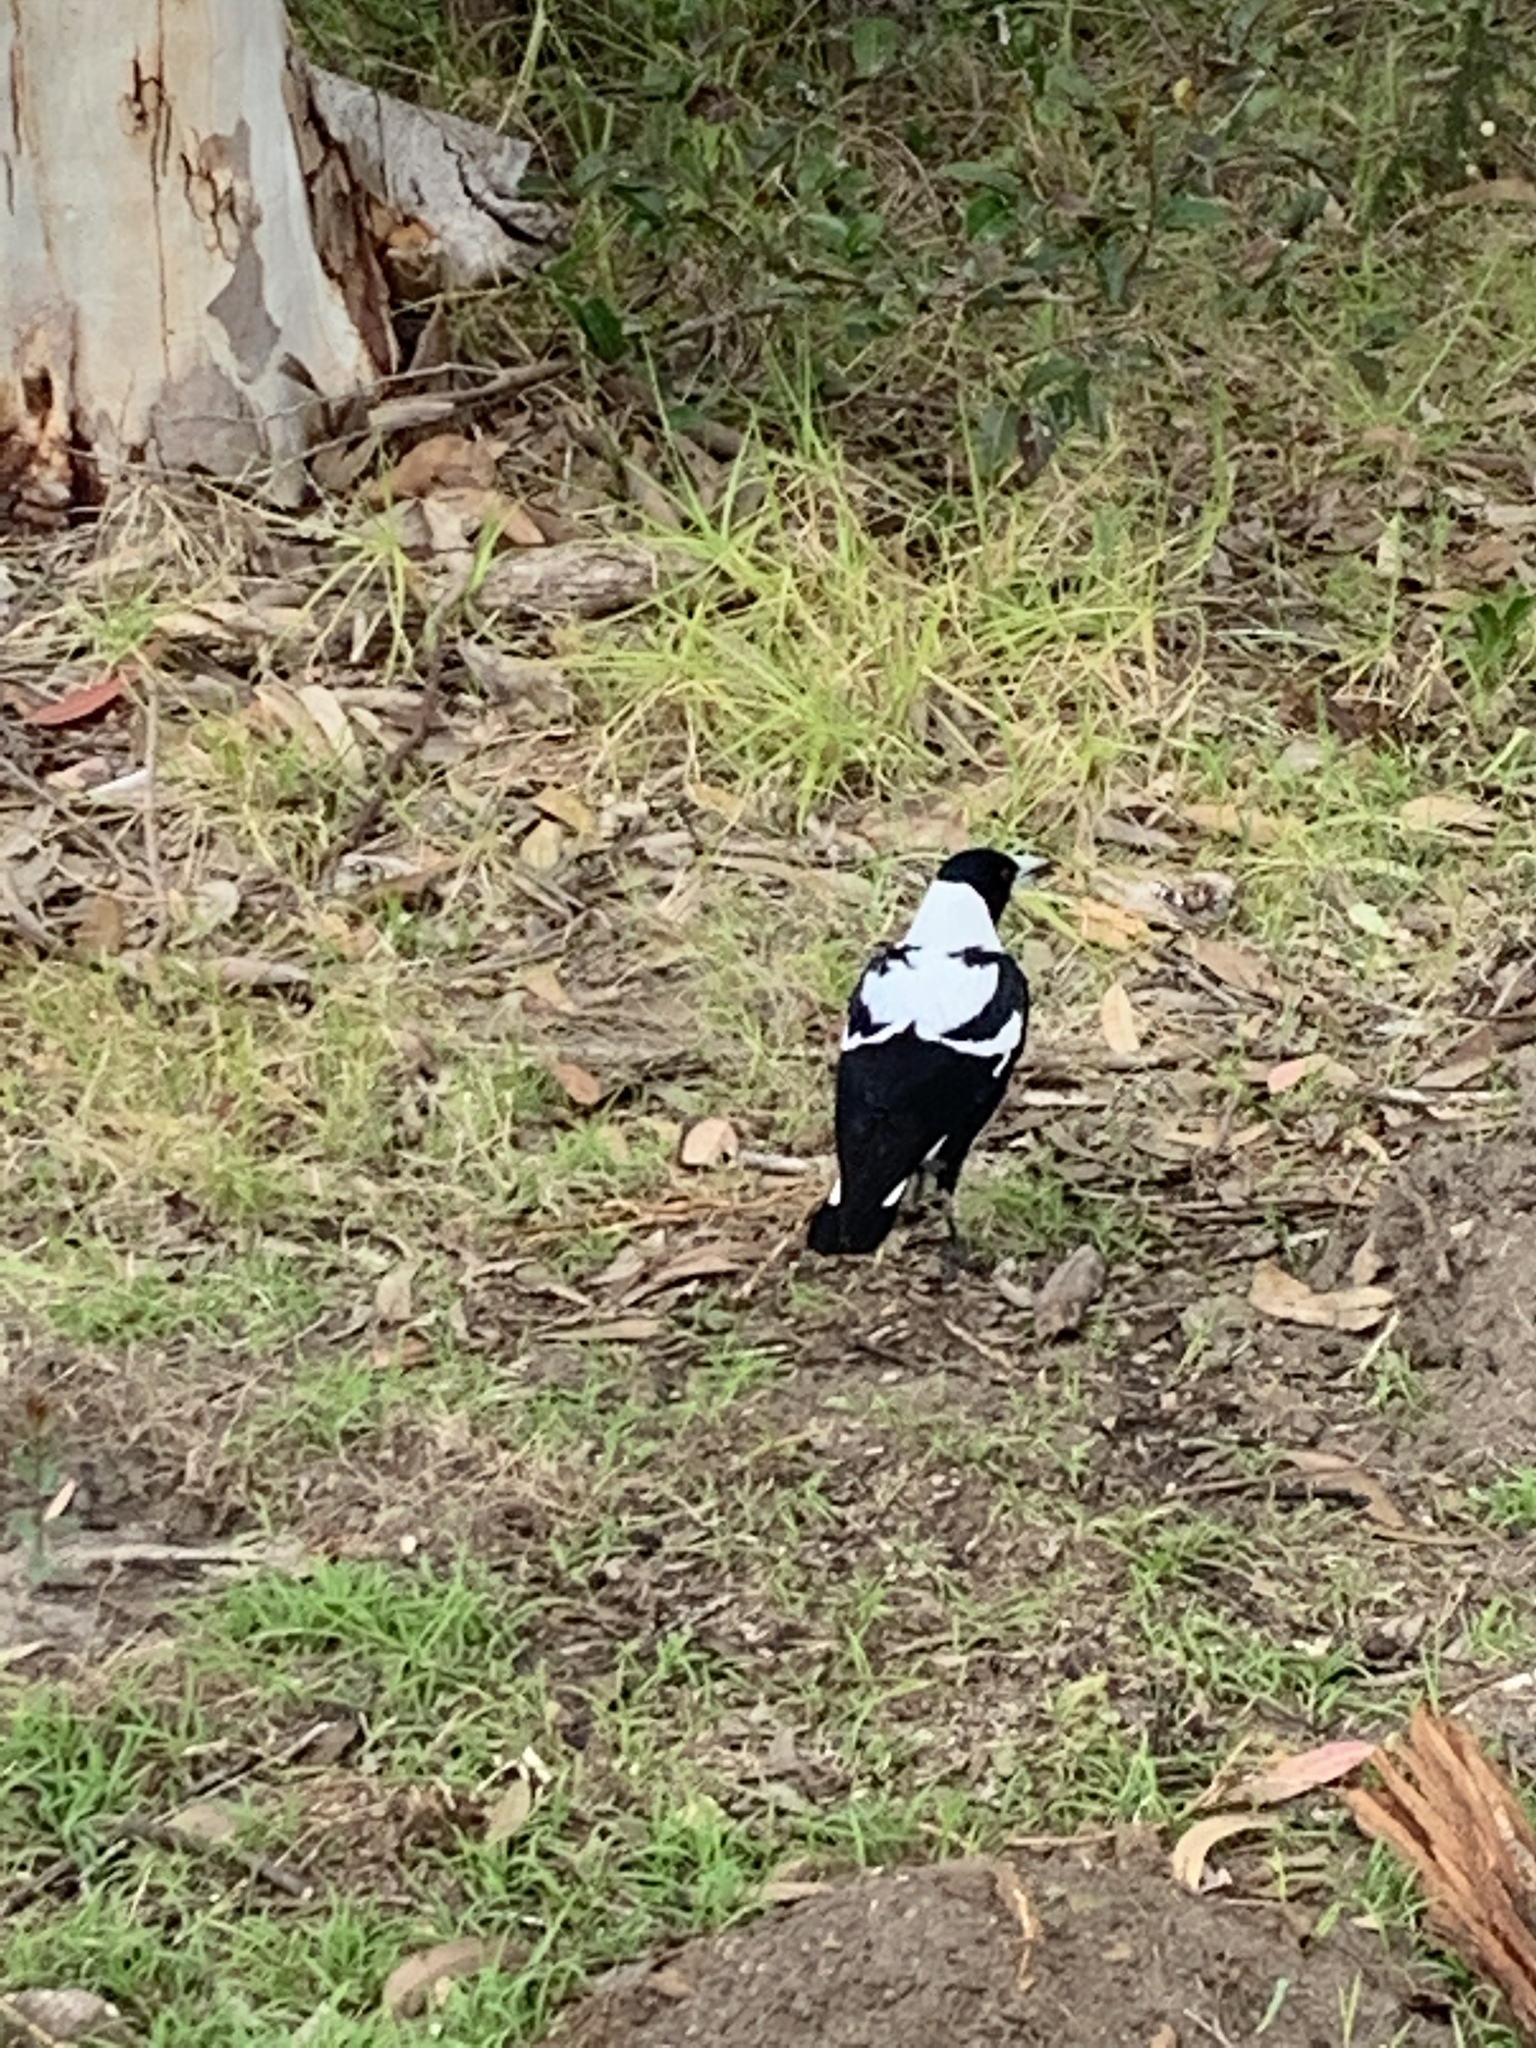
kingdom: Animalia
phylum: Chordata
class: Aves
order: Passeriformes
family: Cracticidae
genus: Gymnorhina
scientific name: Gymnorhina tibicen
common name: Australian magpie
